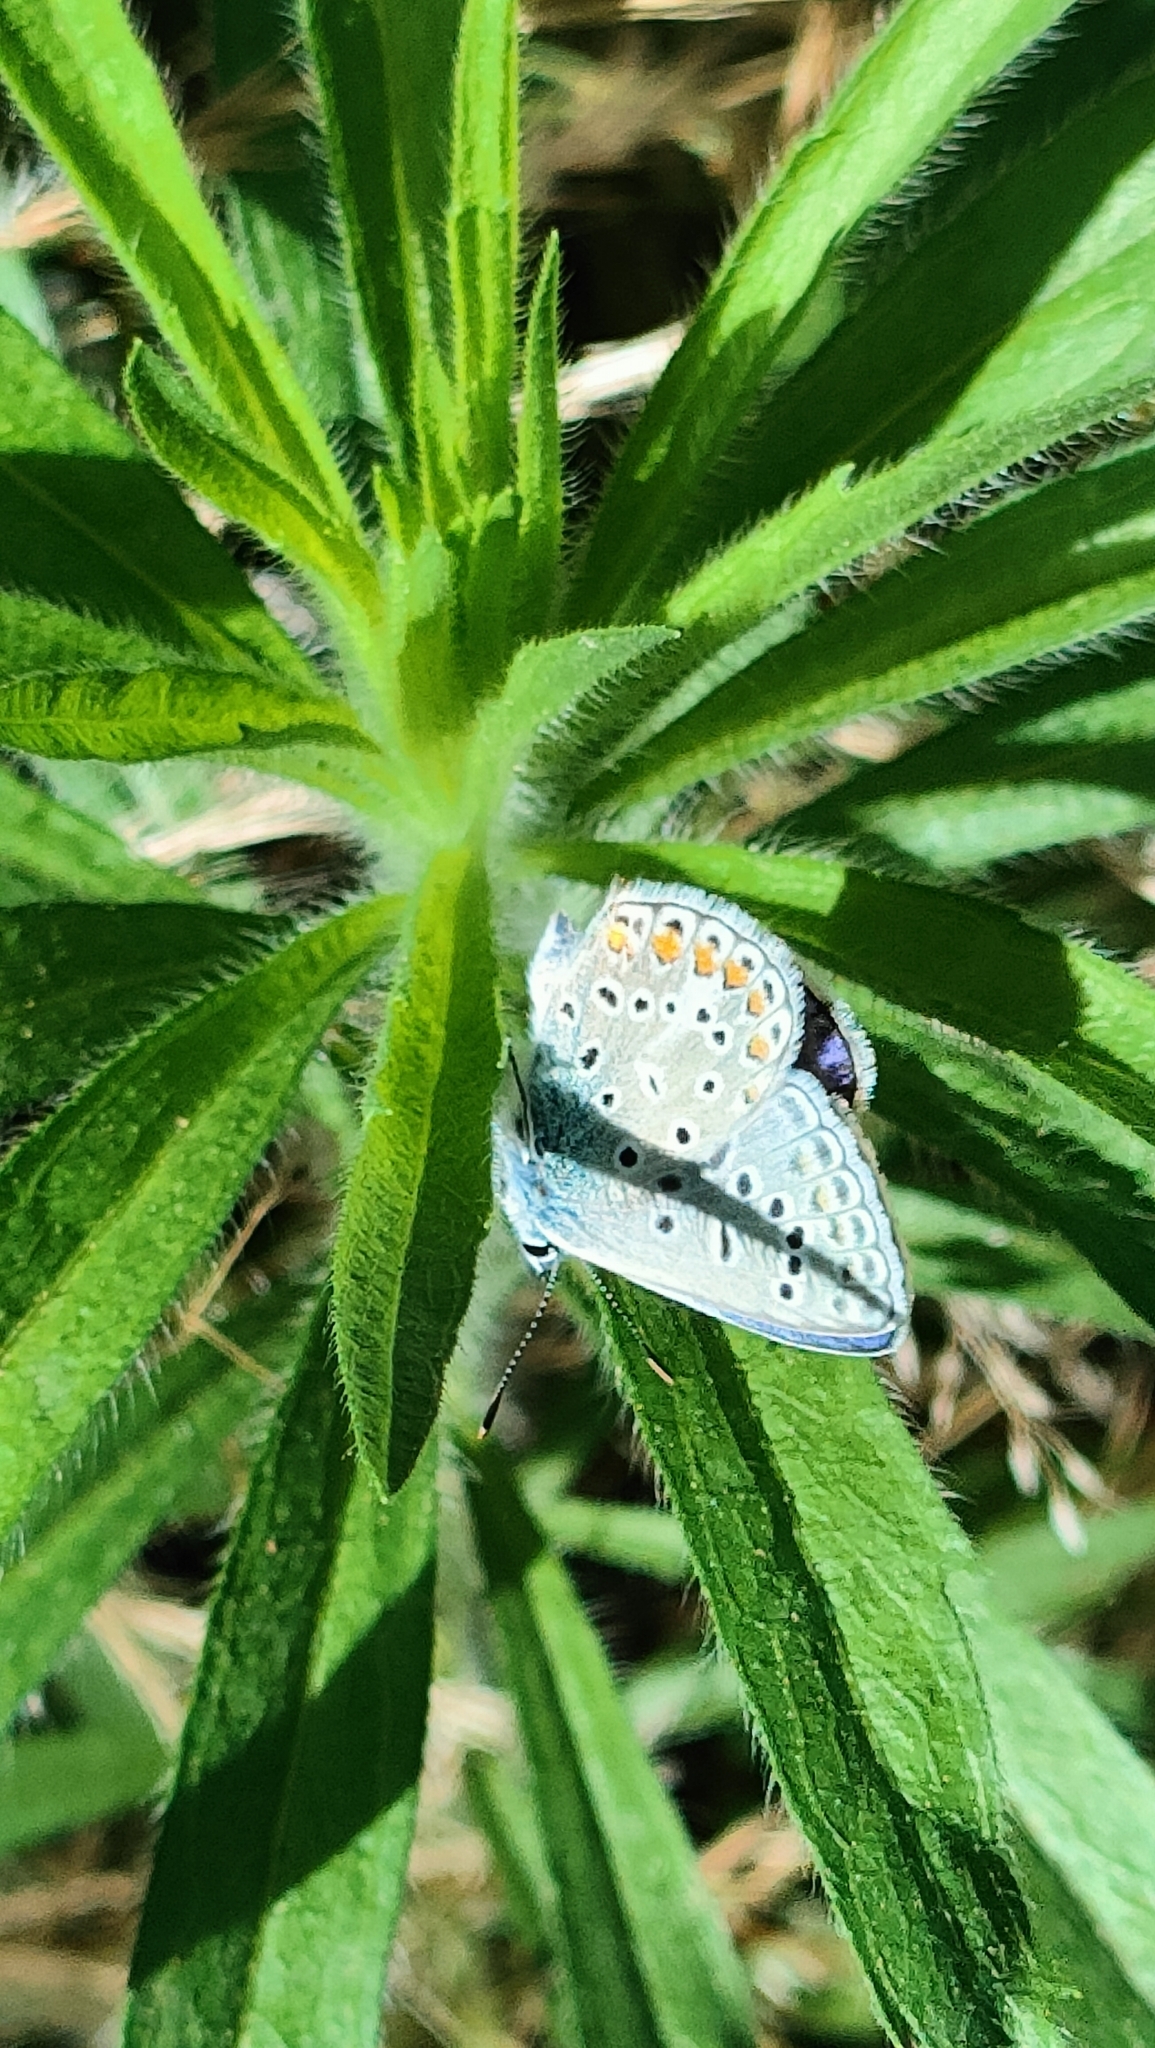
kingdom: Animalia
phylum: Arthropoda
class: Insecta
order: Lepidoptera
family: Lycaenidae
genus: Polyommatus
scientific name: Polyommatus icarus
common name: Common blue
